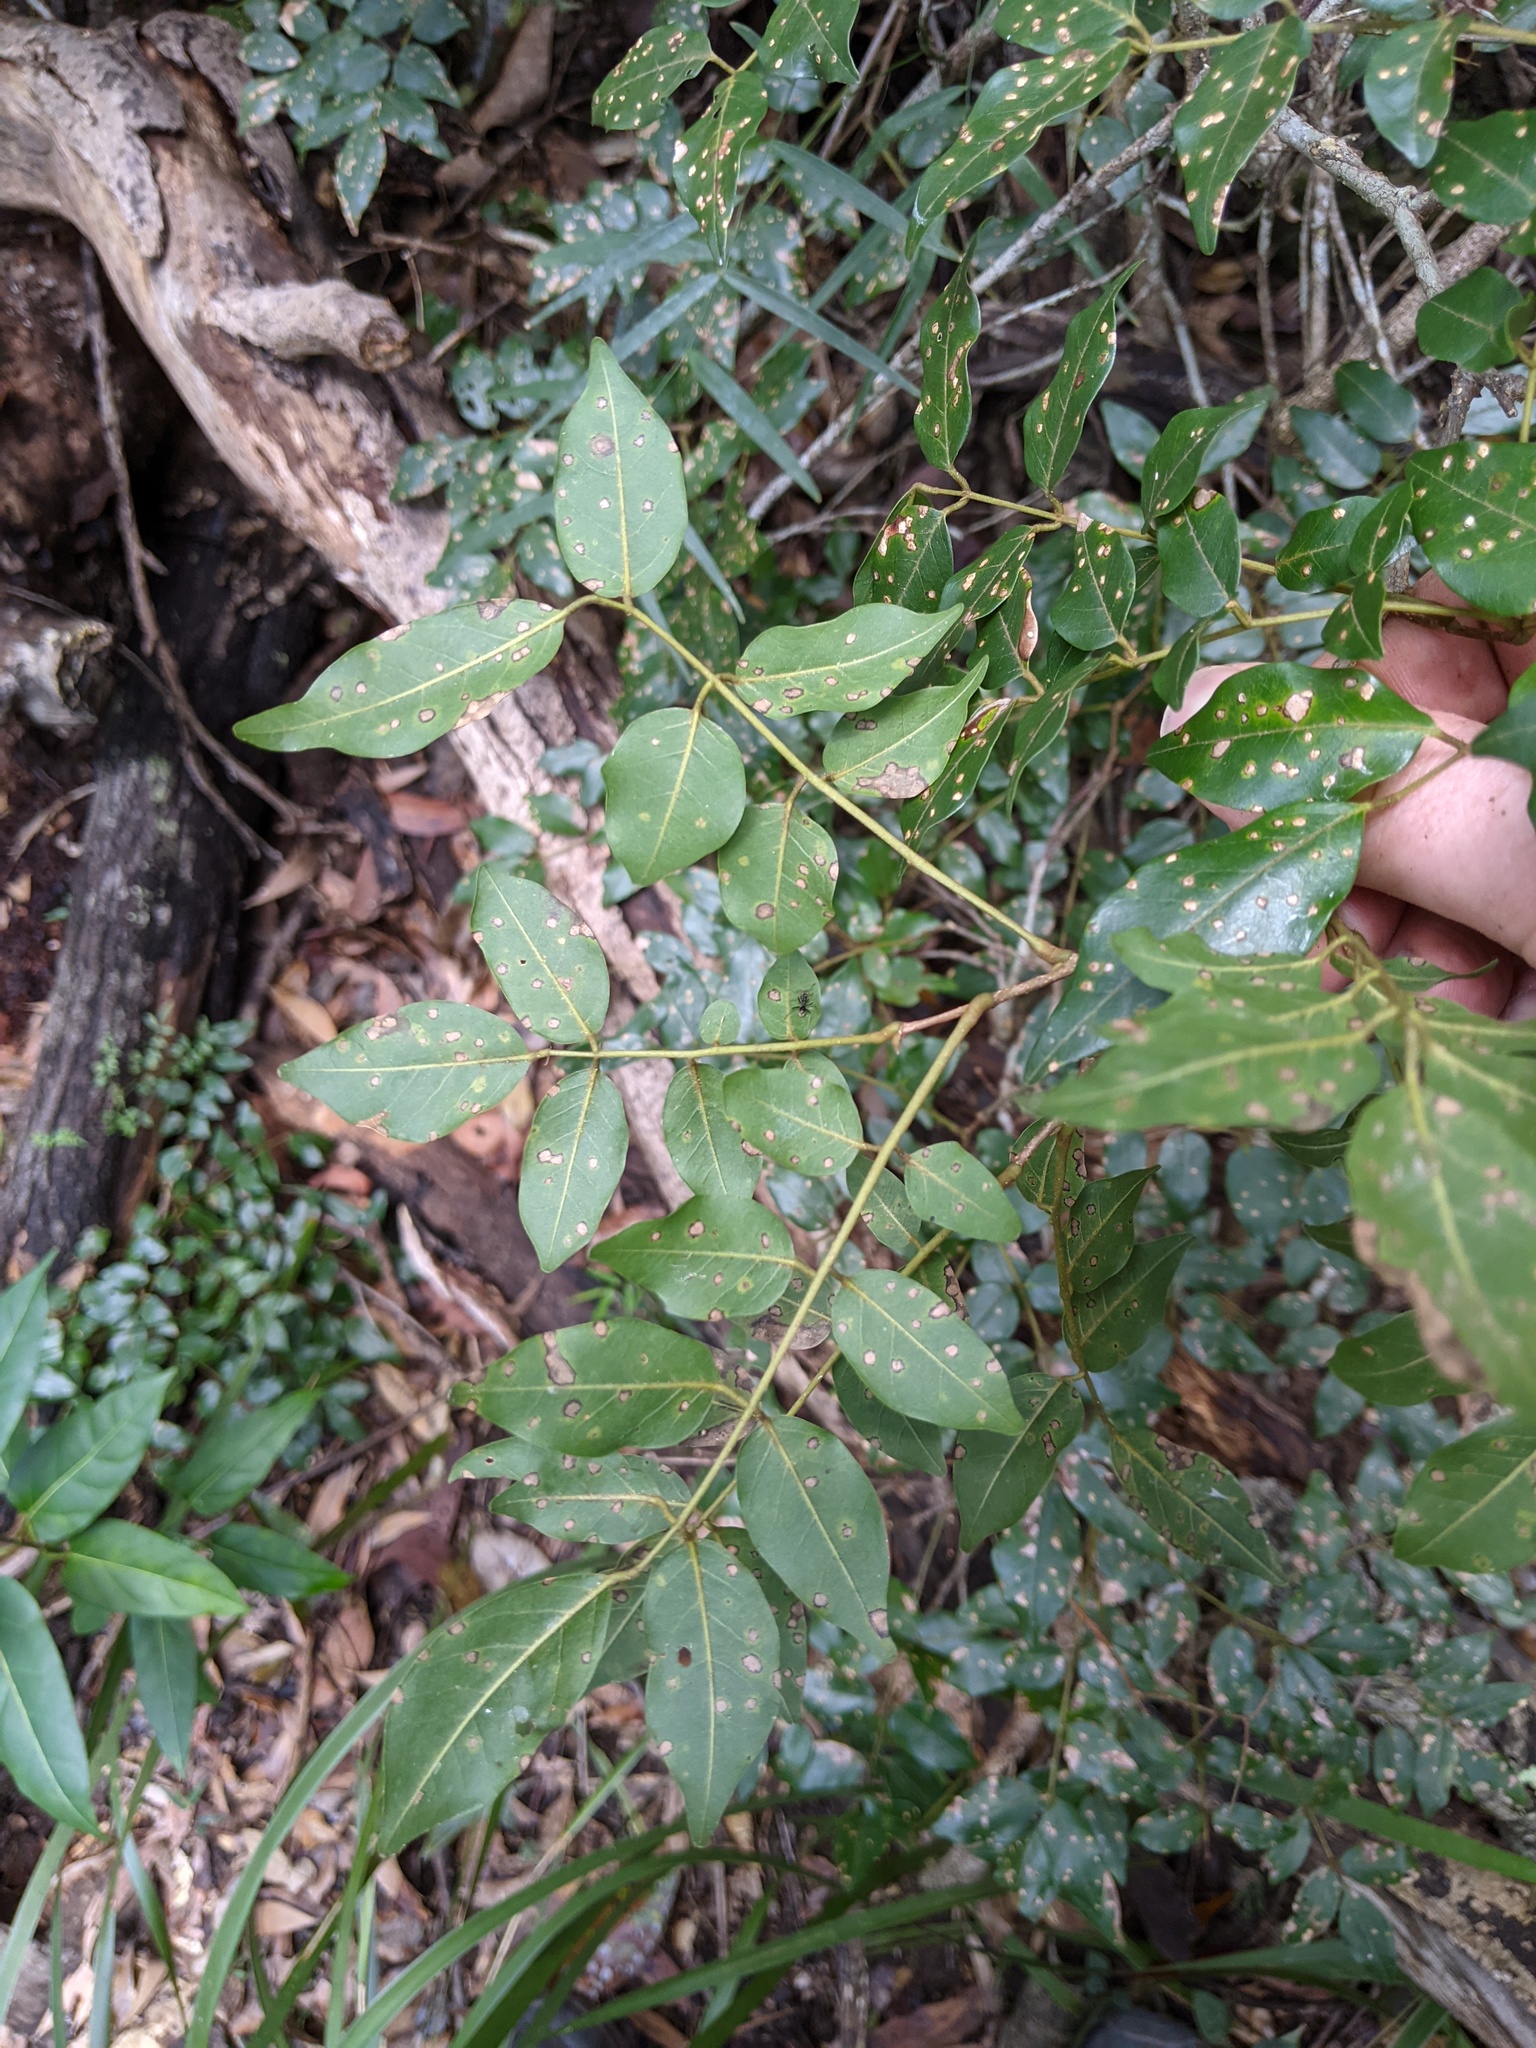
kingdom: Plantae
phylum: Tracheophyta
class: Magnoliopsida
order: Fabales
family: Fabaceae
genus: Austrosteenisia
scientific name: Austrosteenisia blackii
